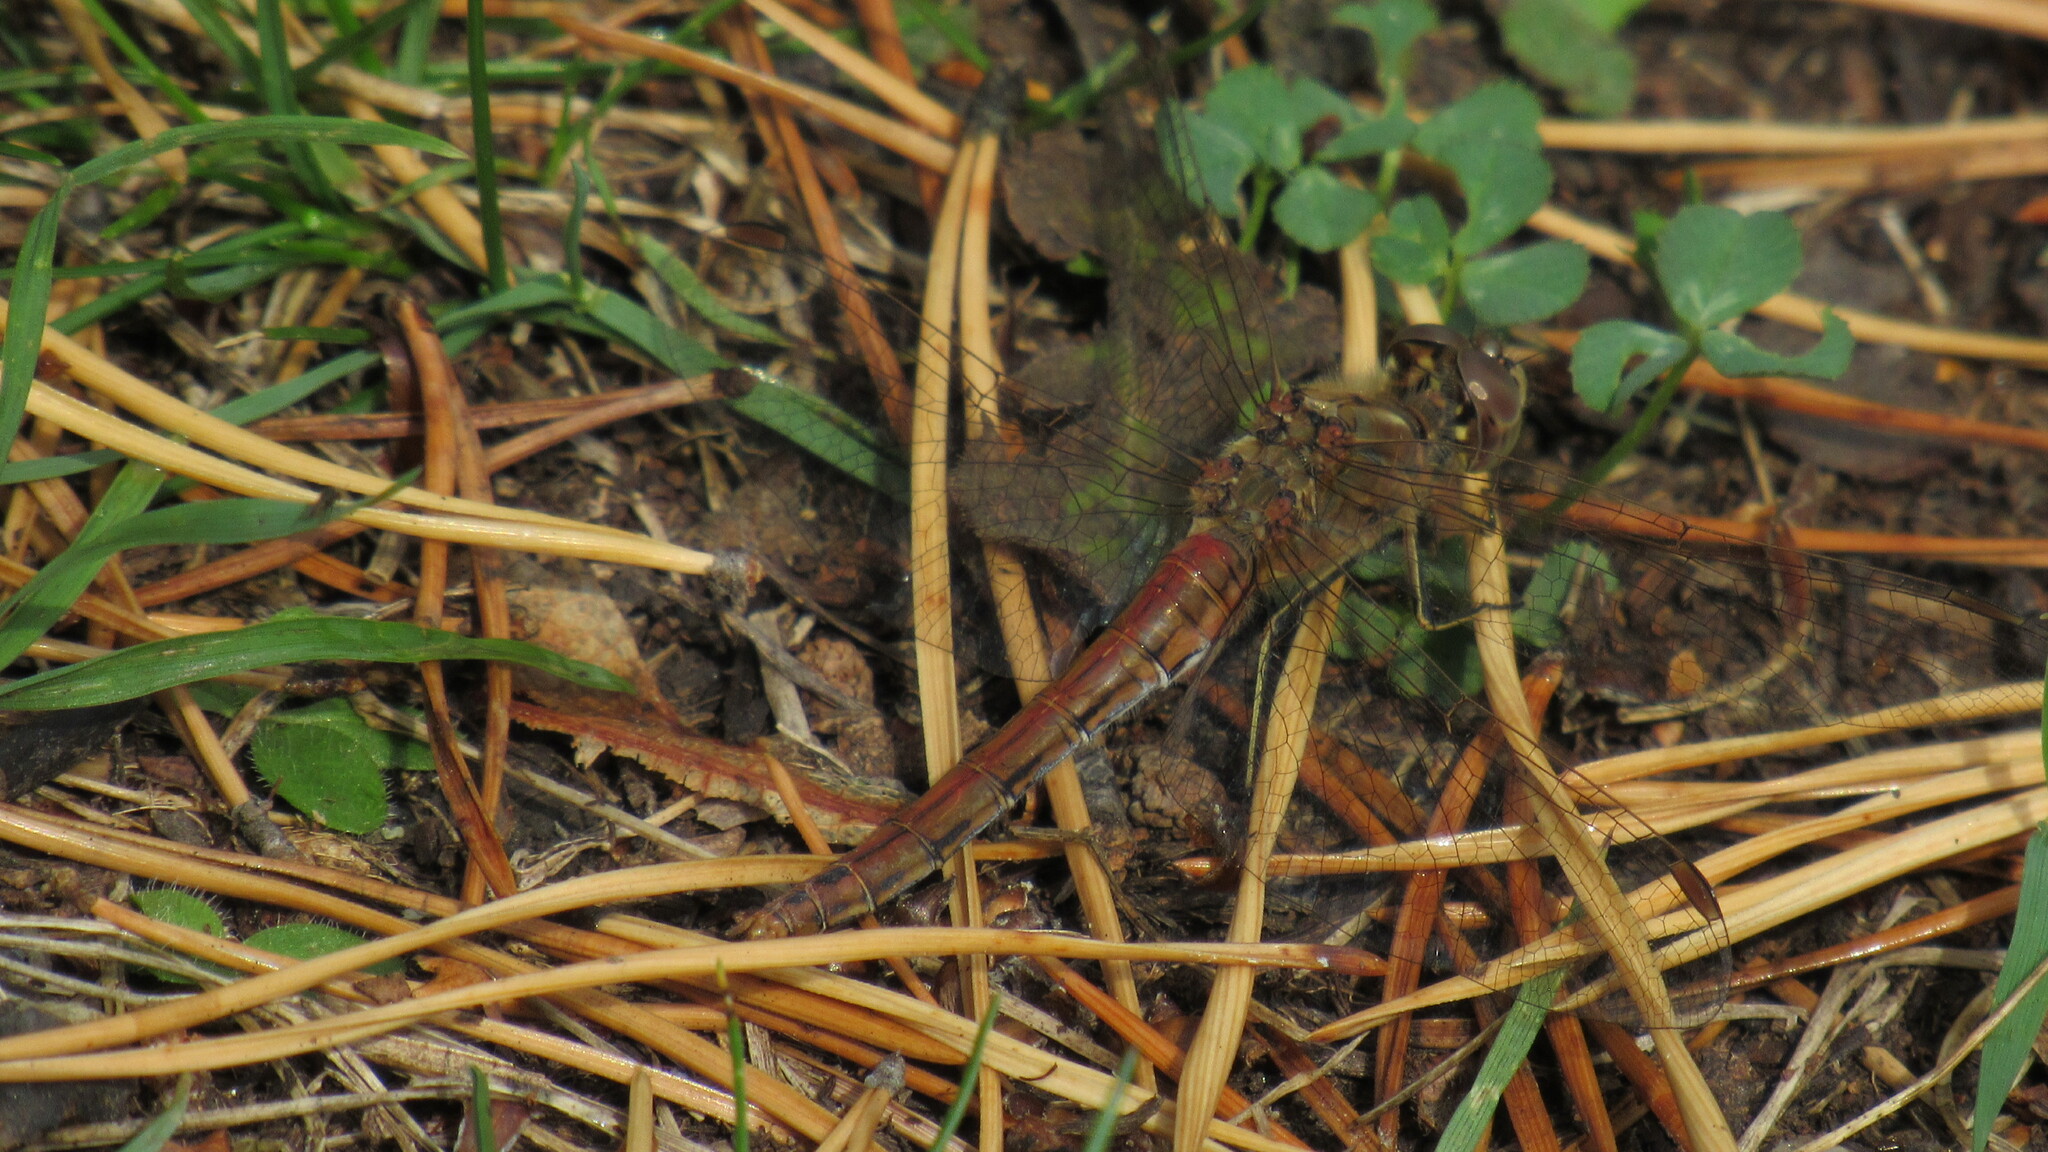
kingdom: Animalia
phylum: Arthropoda
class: Insecta
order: Odonata
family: Libellulidae
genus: Sympetrum
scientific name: Sympetrum vulgatum
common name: Vagrant darter
